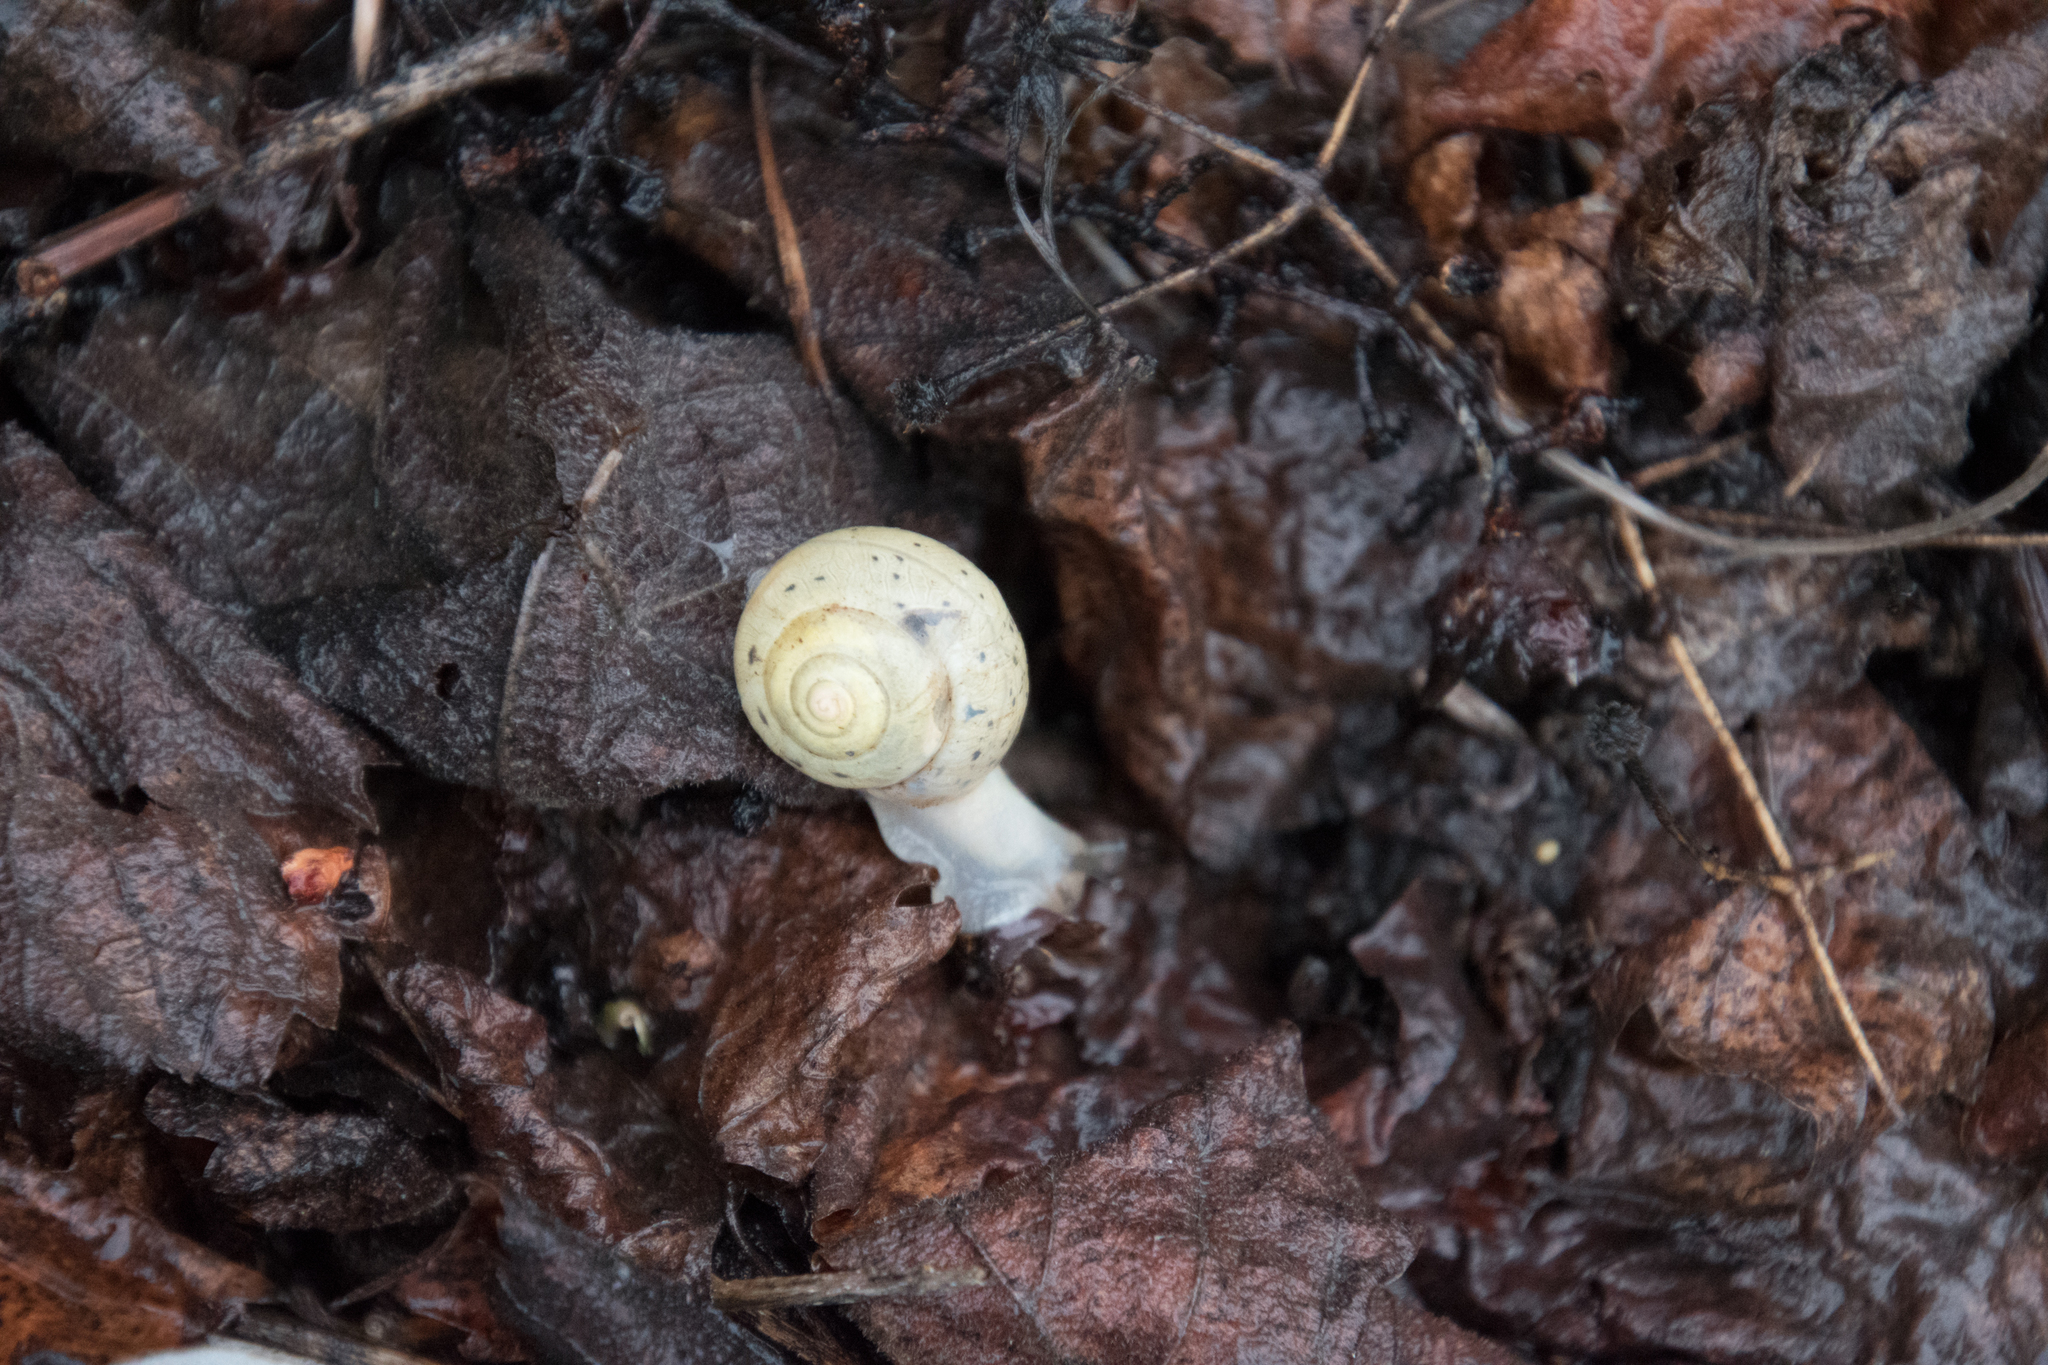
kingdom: Animalia
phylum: Mollusca
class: Gastropoda
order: Stylommatophora
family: Camaenidae
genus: Fruticicola
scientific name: Fruticicola fruticum
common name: Bush snail
